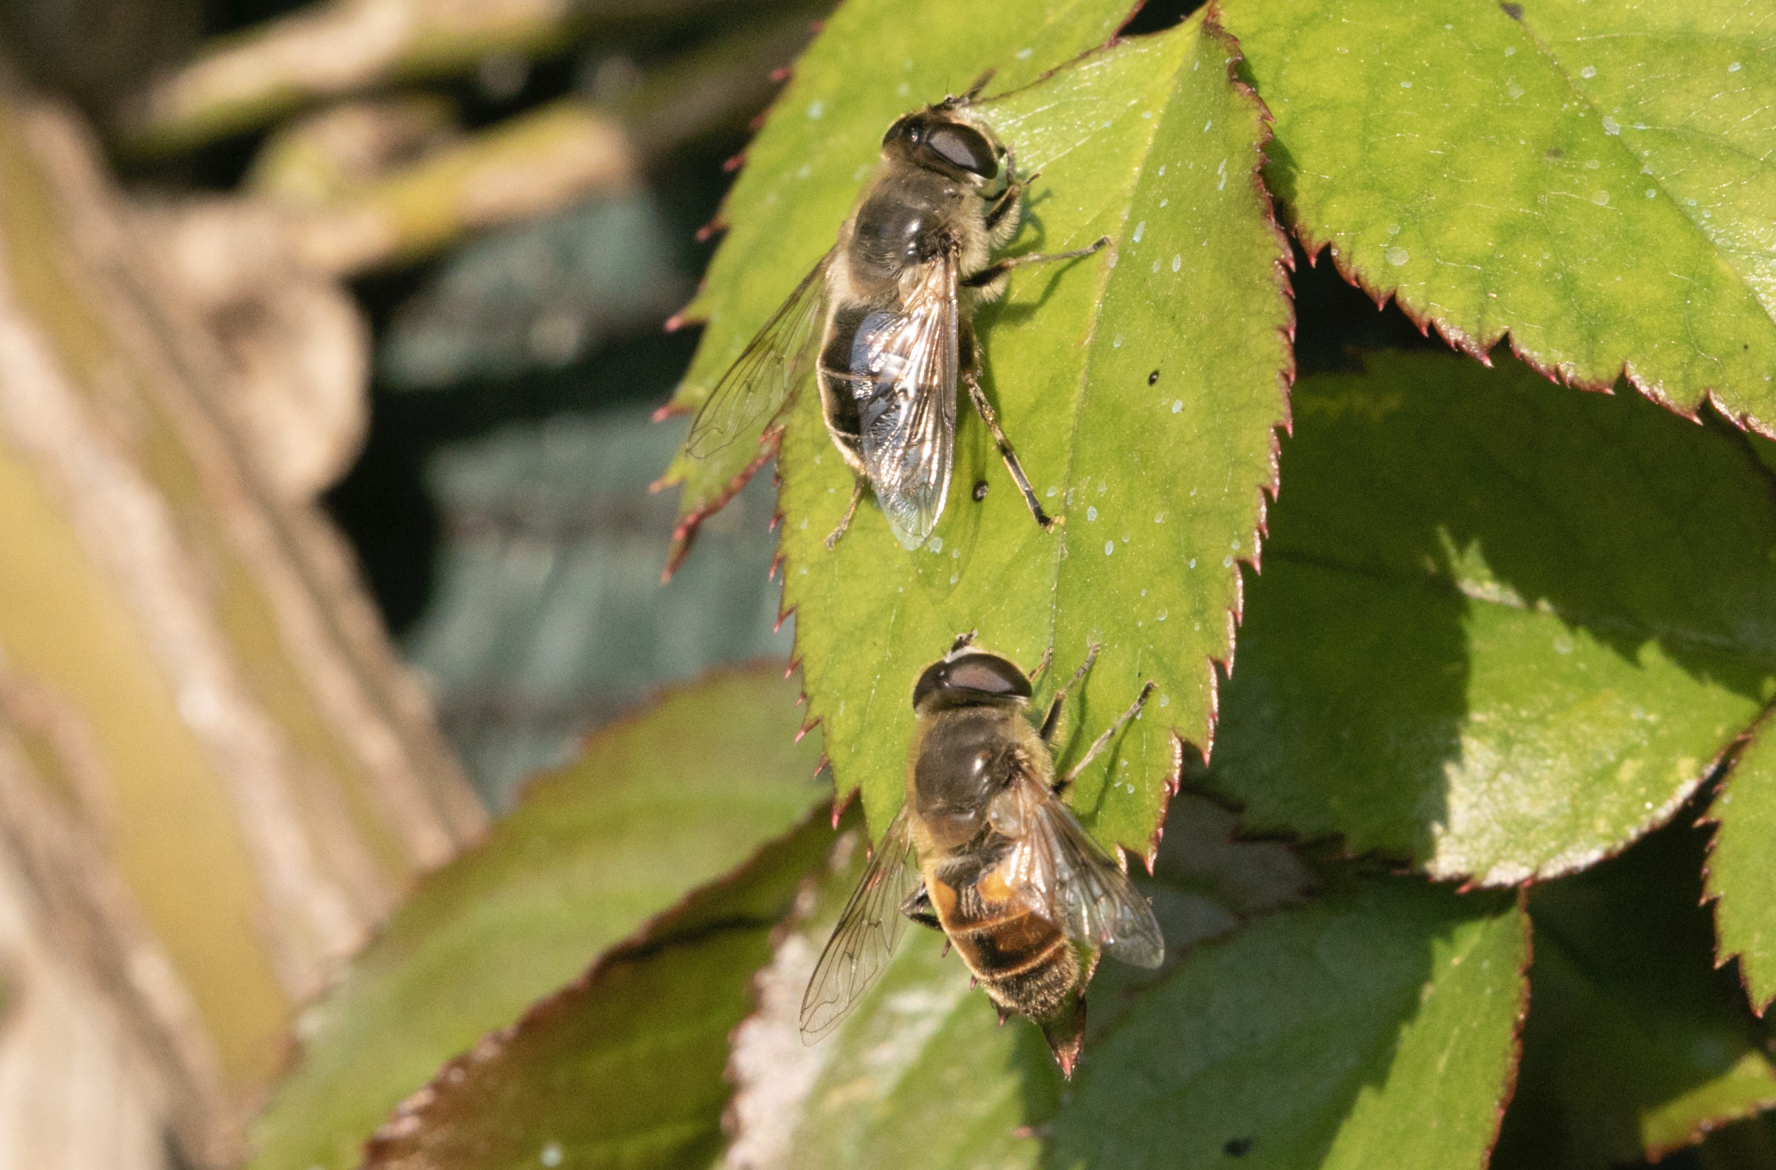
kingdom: Animalia
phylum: Arthropoda
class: Insecta
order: Diptera
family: Syrphidae
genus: Eristalis
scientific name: Eristalis tenax
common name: Drone fly
